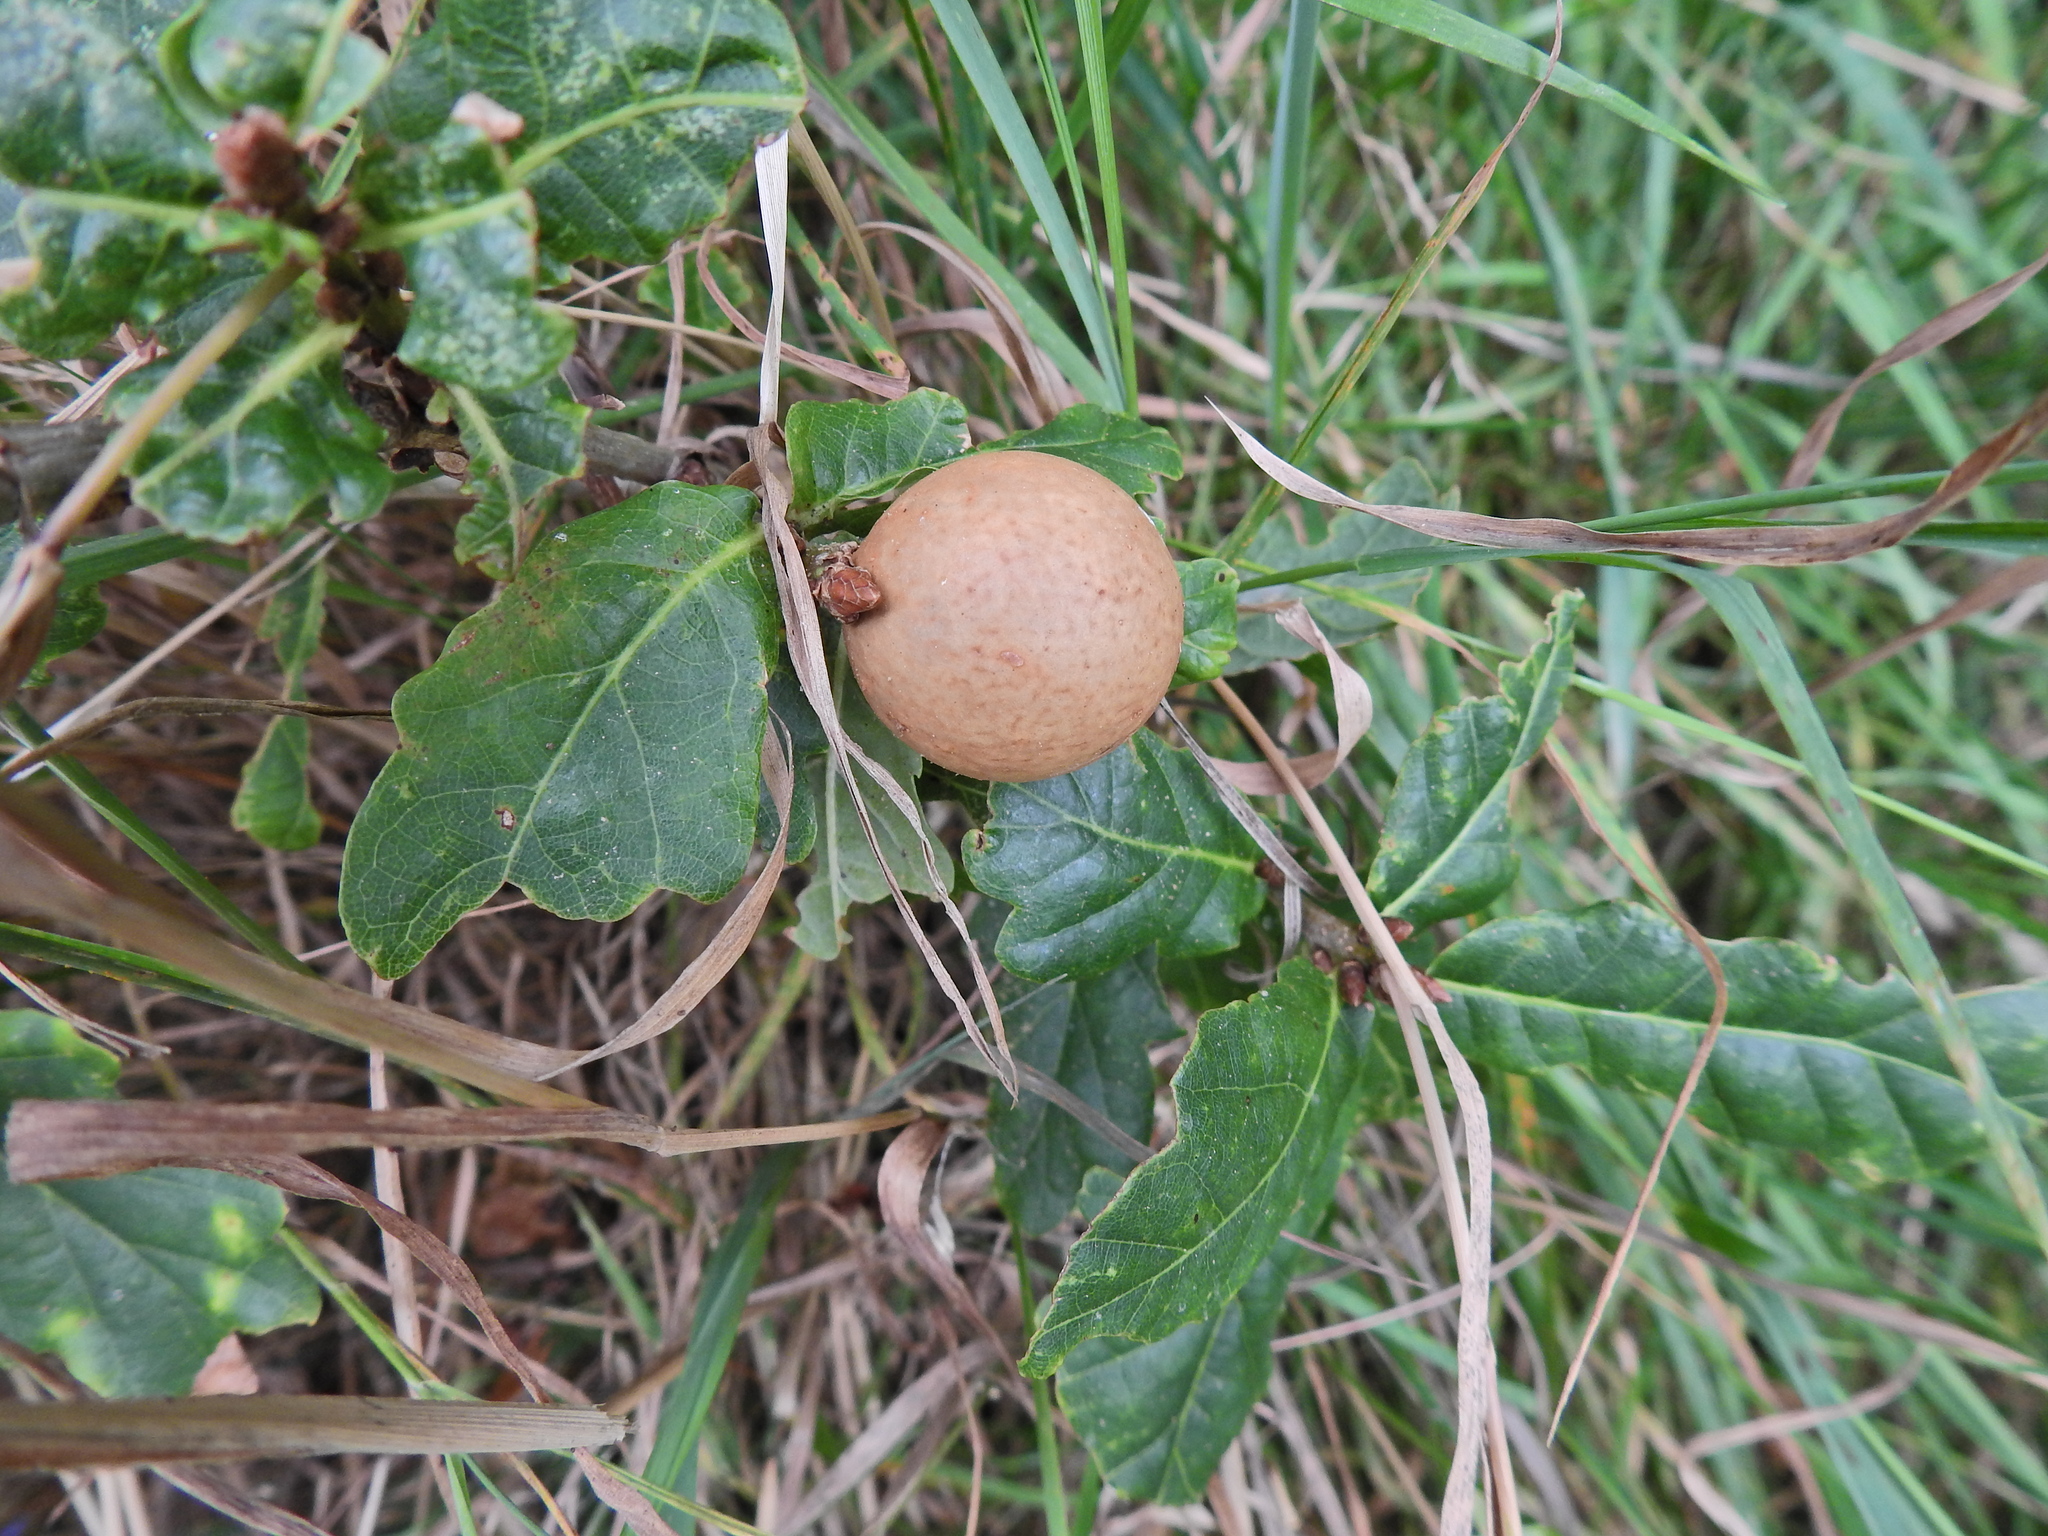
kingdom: Animalia
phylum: Arthropoda
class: Insecta
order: Hymenoptera
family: Cynipidae
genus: Andricus
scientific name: Andricus kollari
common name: Marble gall
